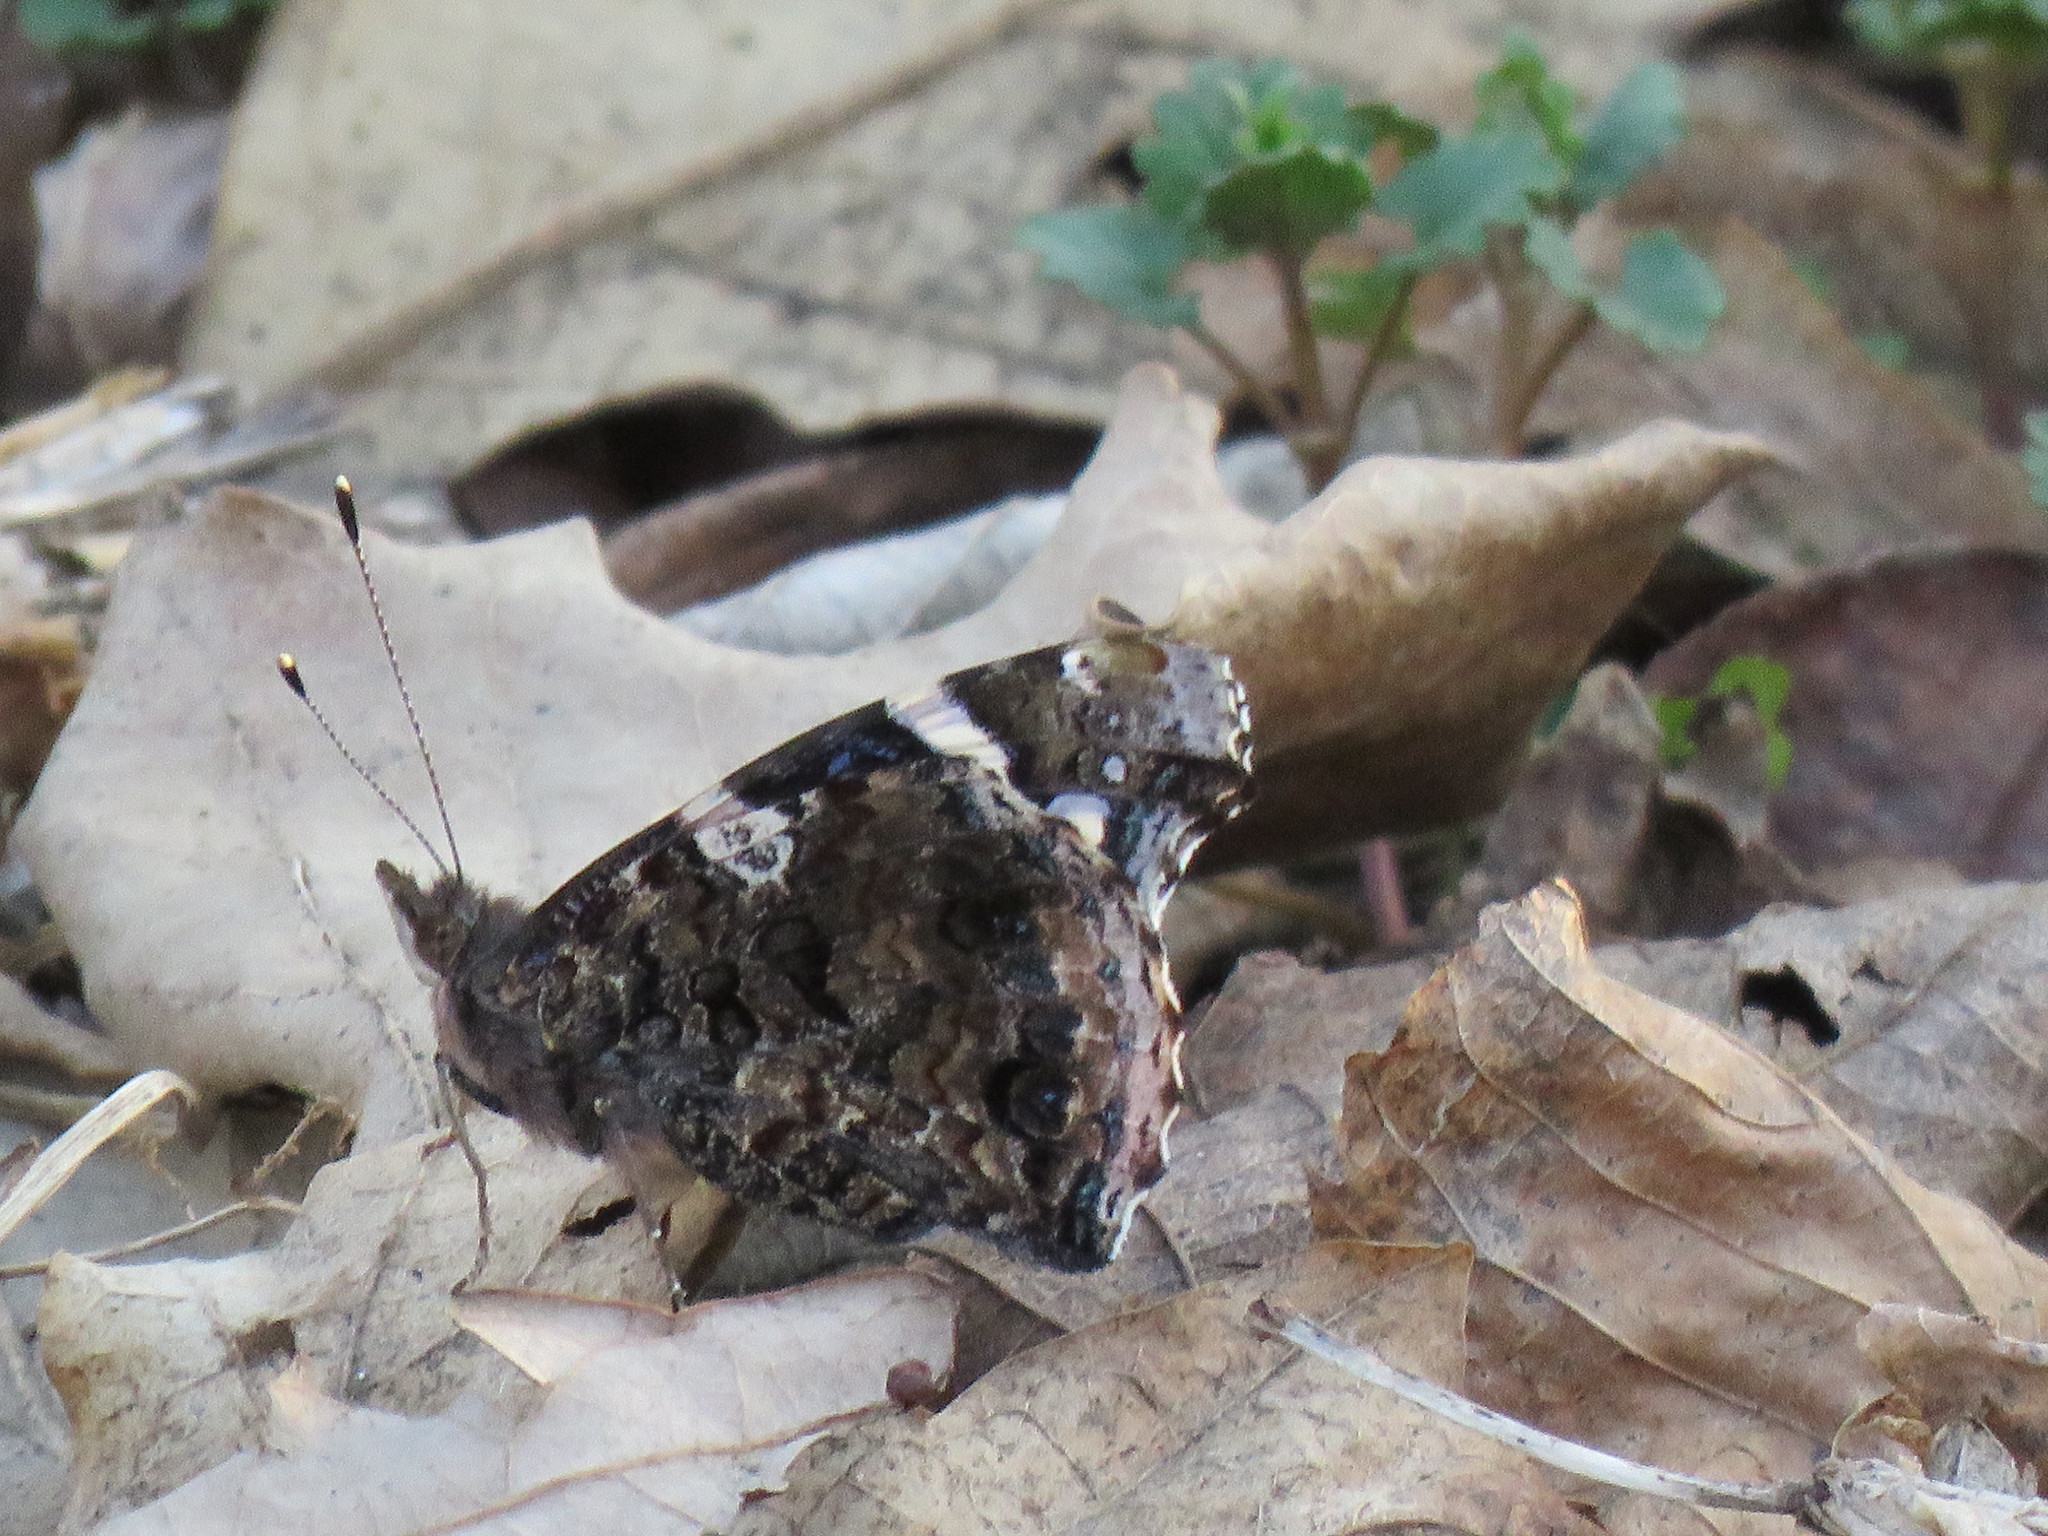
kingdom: Animalia
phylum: Arthropoda
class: Insecta
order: Lepidoptera
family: Nymphalidae
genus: Vanessa
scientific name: Vanessa atalanta
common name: Red admiral
